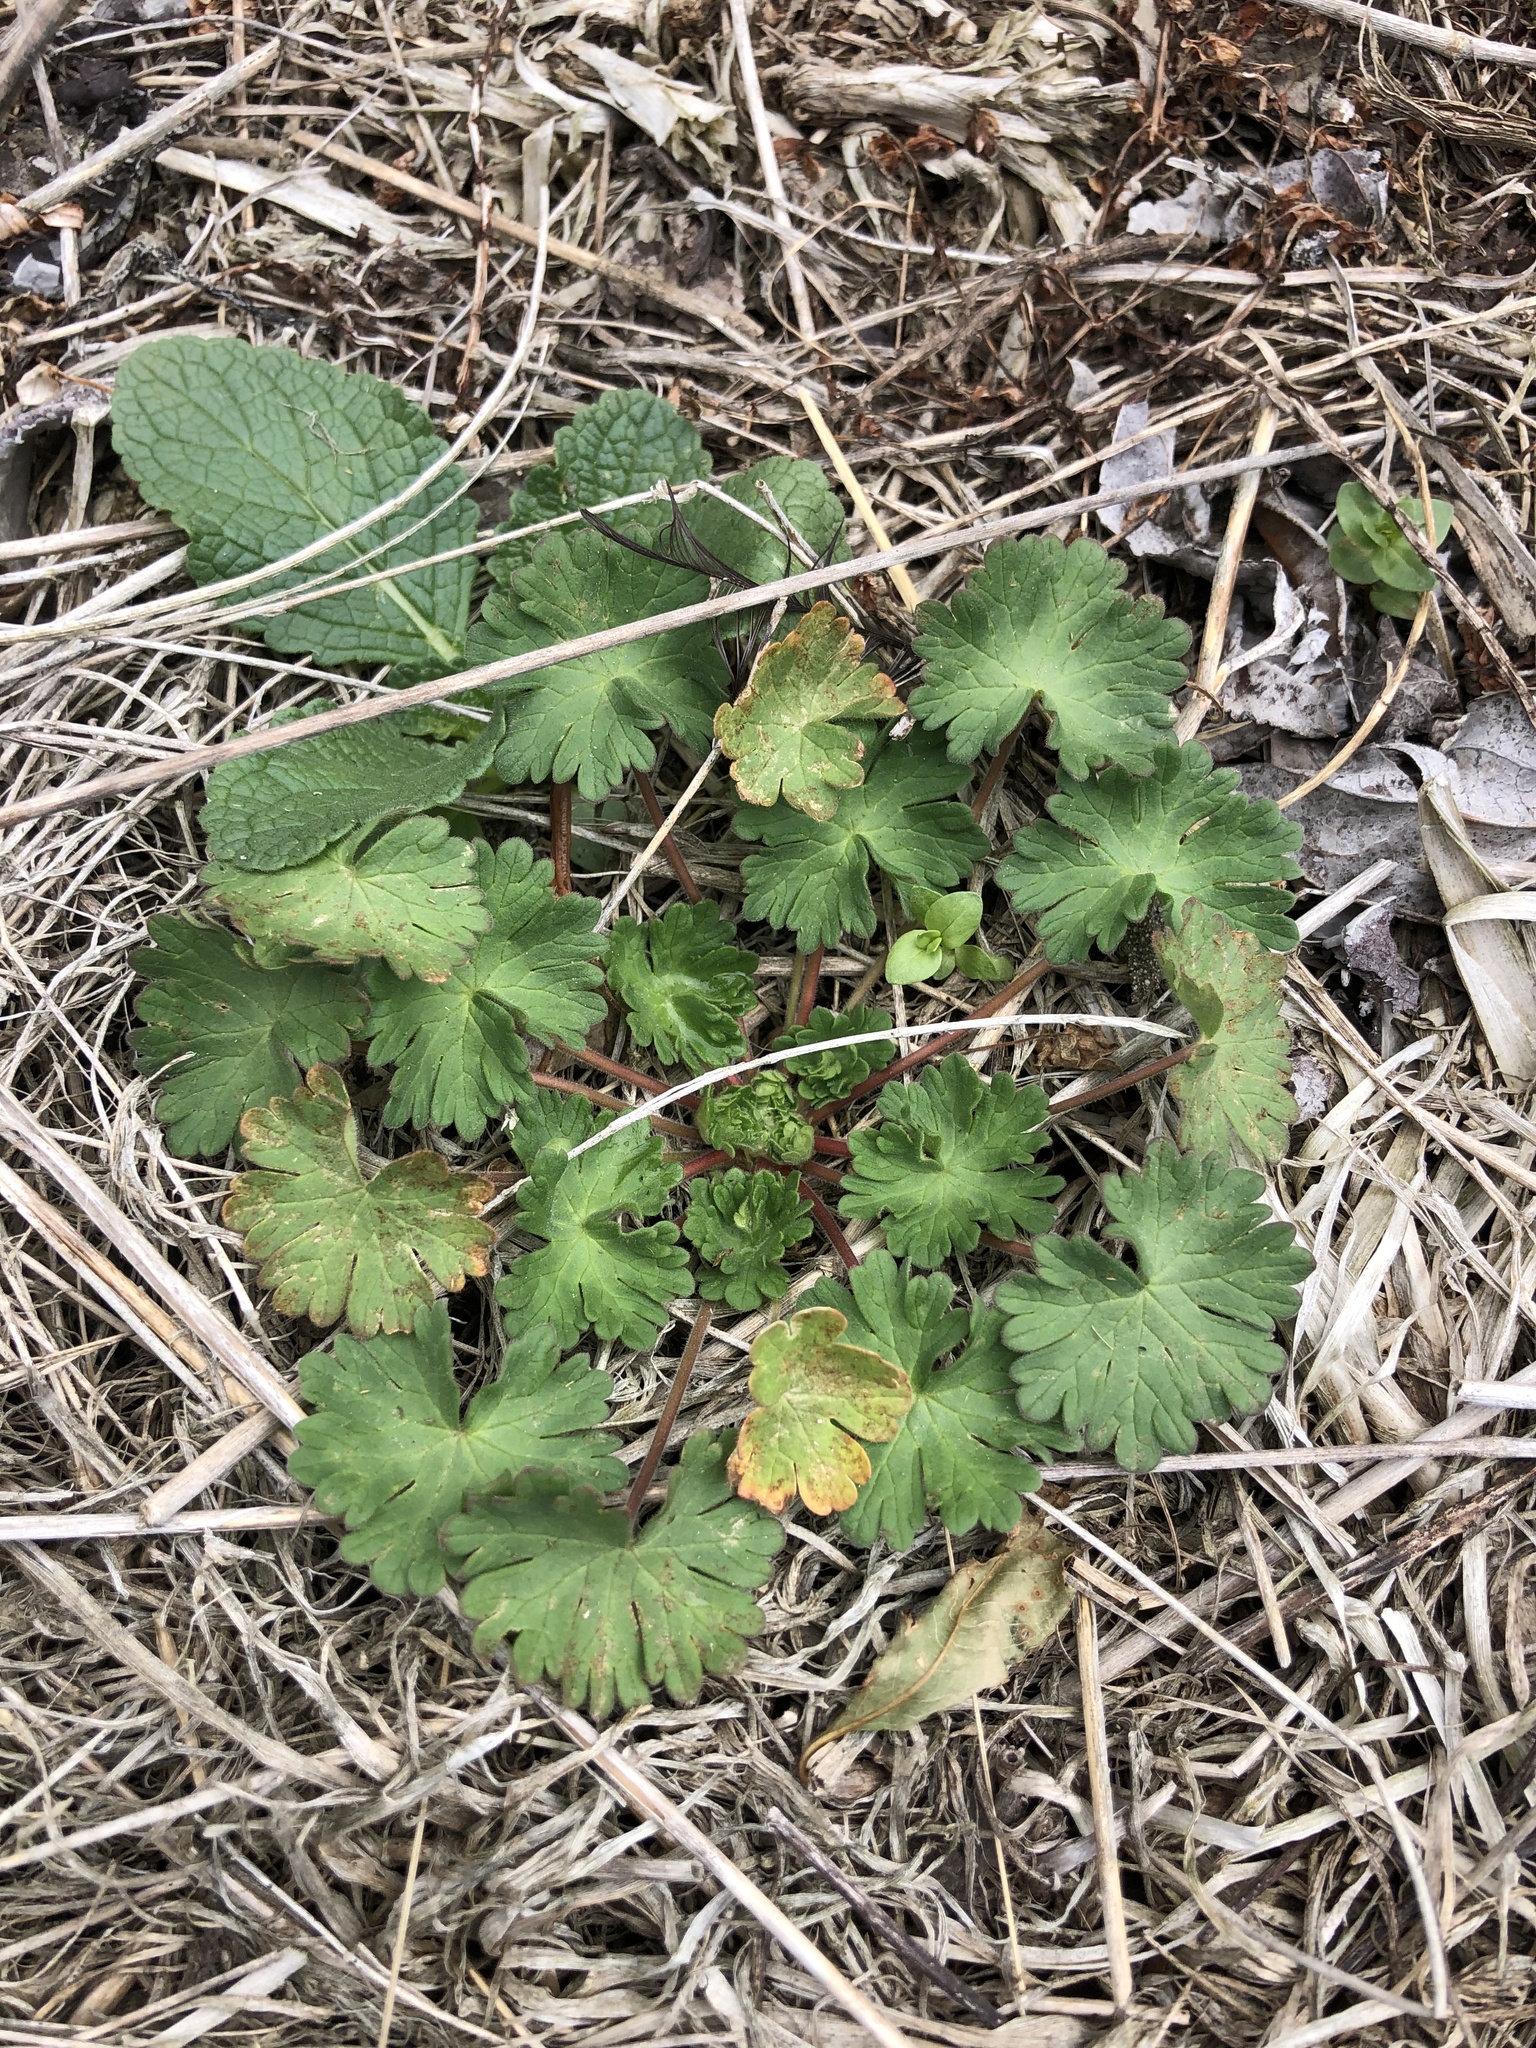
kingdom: Plantae
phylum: Tracheophyta
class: Magnoliopsida
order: Geraniales
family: Geraniaceae
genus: Geranium
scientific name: Geranium molle
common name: Dove's-foot crane's-bill
